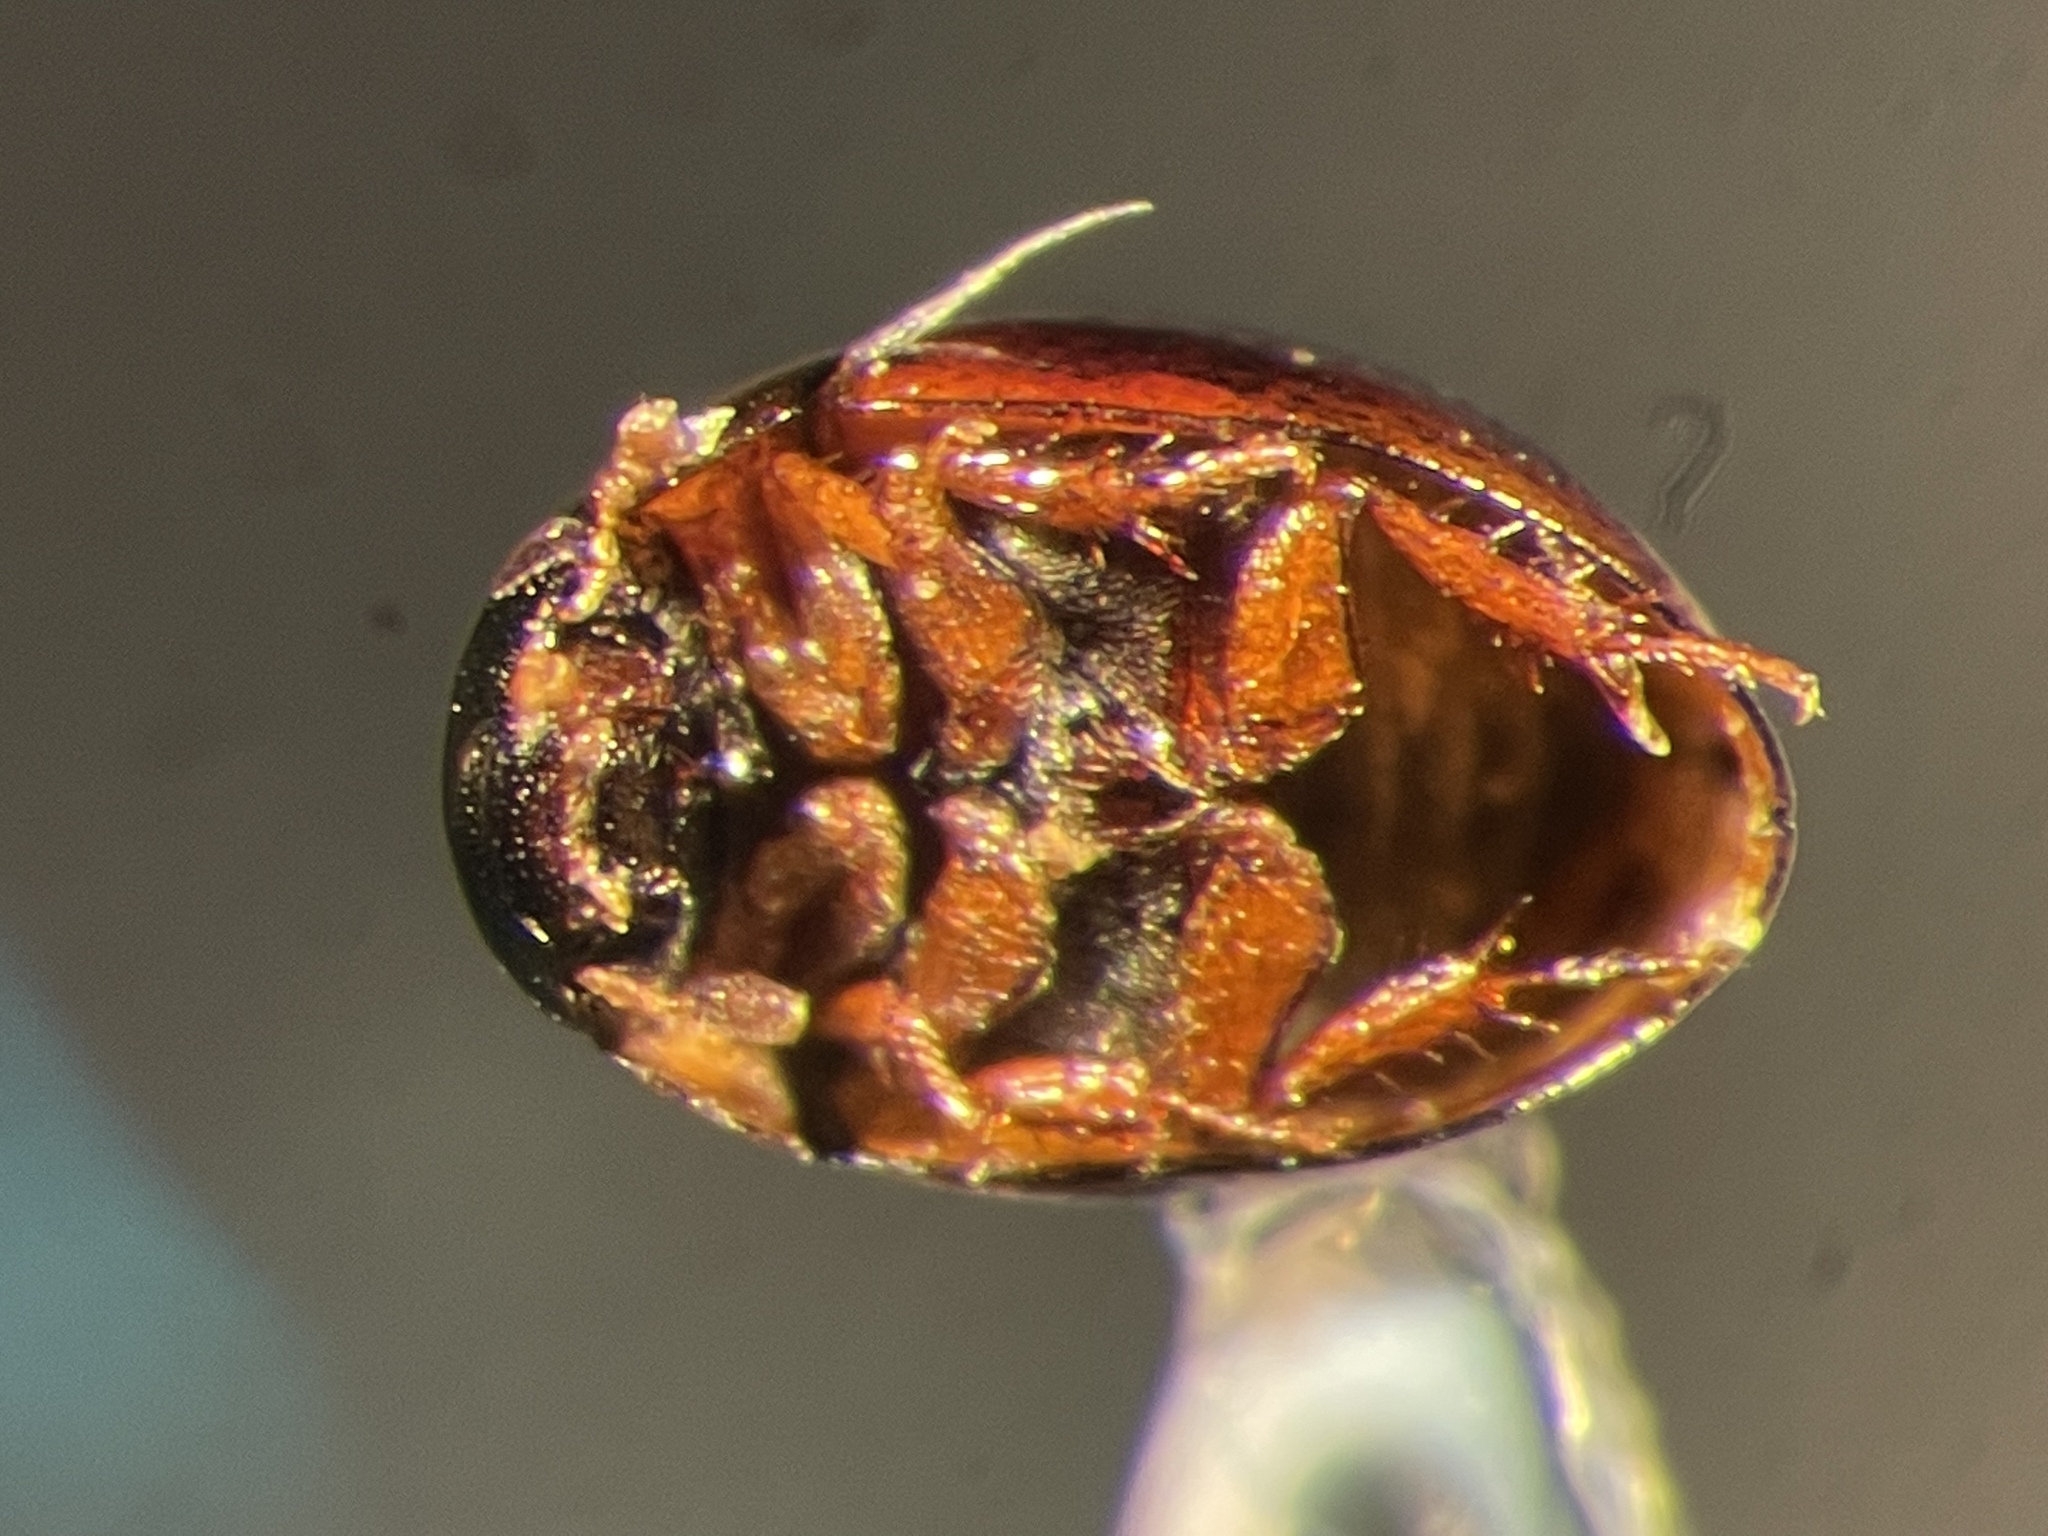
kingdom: Animalia
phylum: Arthropoda
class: Insecta
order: Coleoptera
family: Hydrophilidae
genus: Paracymus
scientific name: Paracymus despectus
